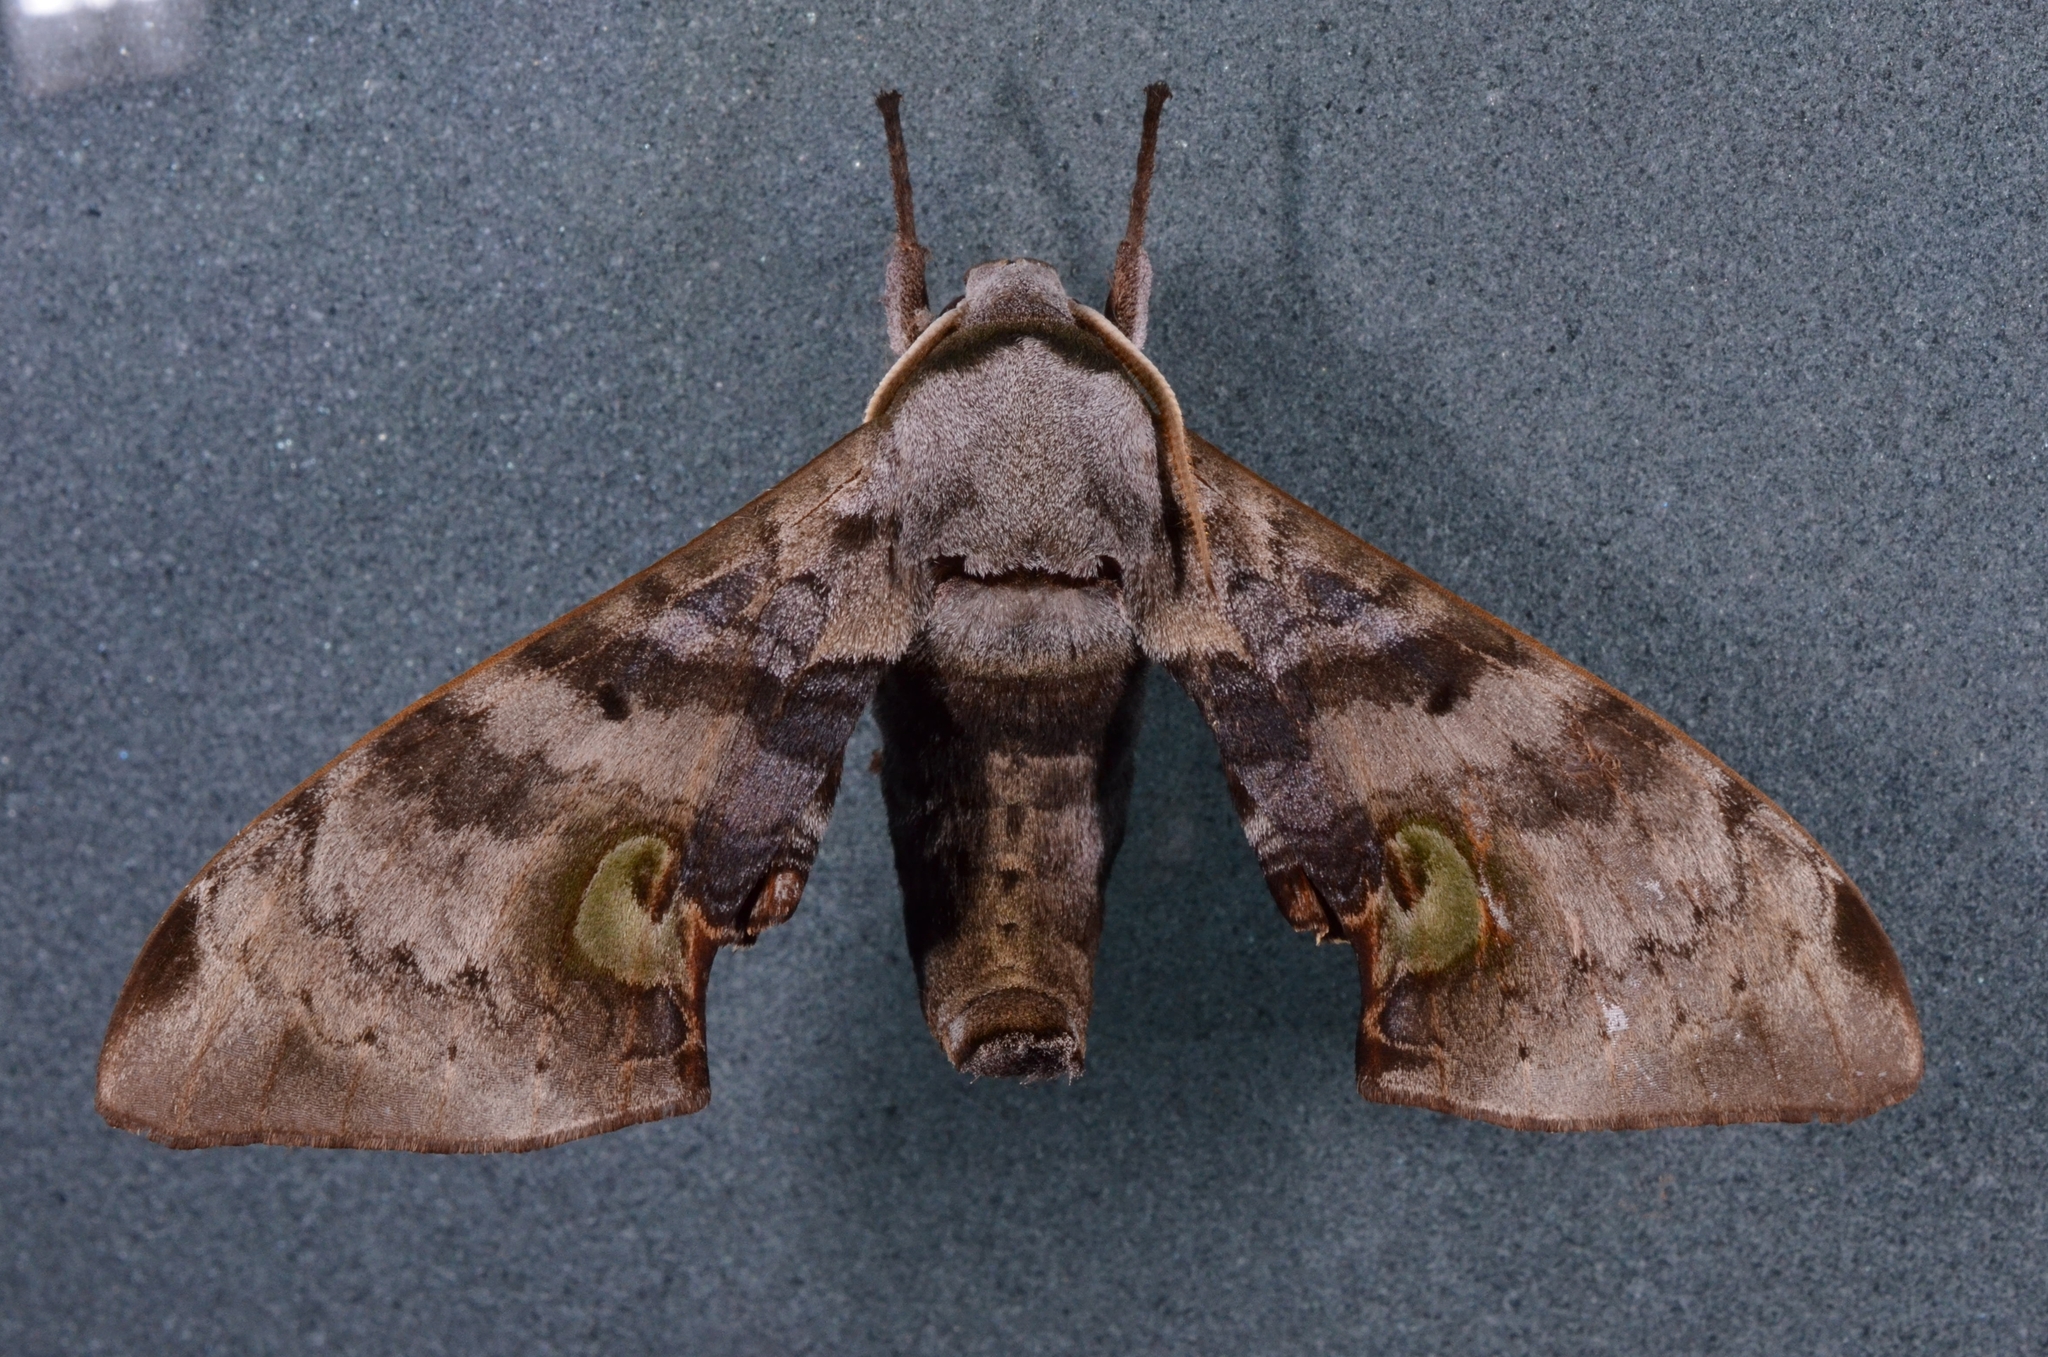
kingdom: Animalia
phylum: Arthropoda
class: Insecta
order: Lepidoptera
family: Sphingidae
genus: Daphnusa
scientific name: Daphnusa ocellaris
